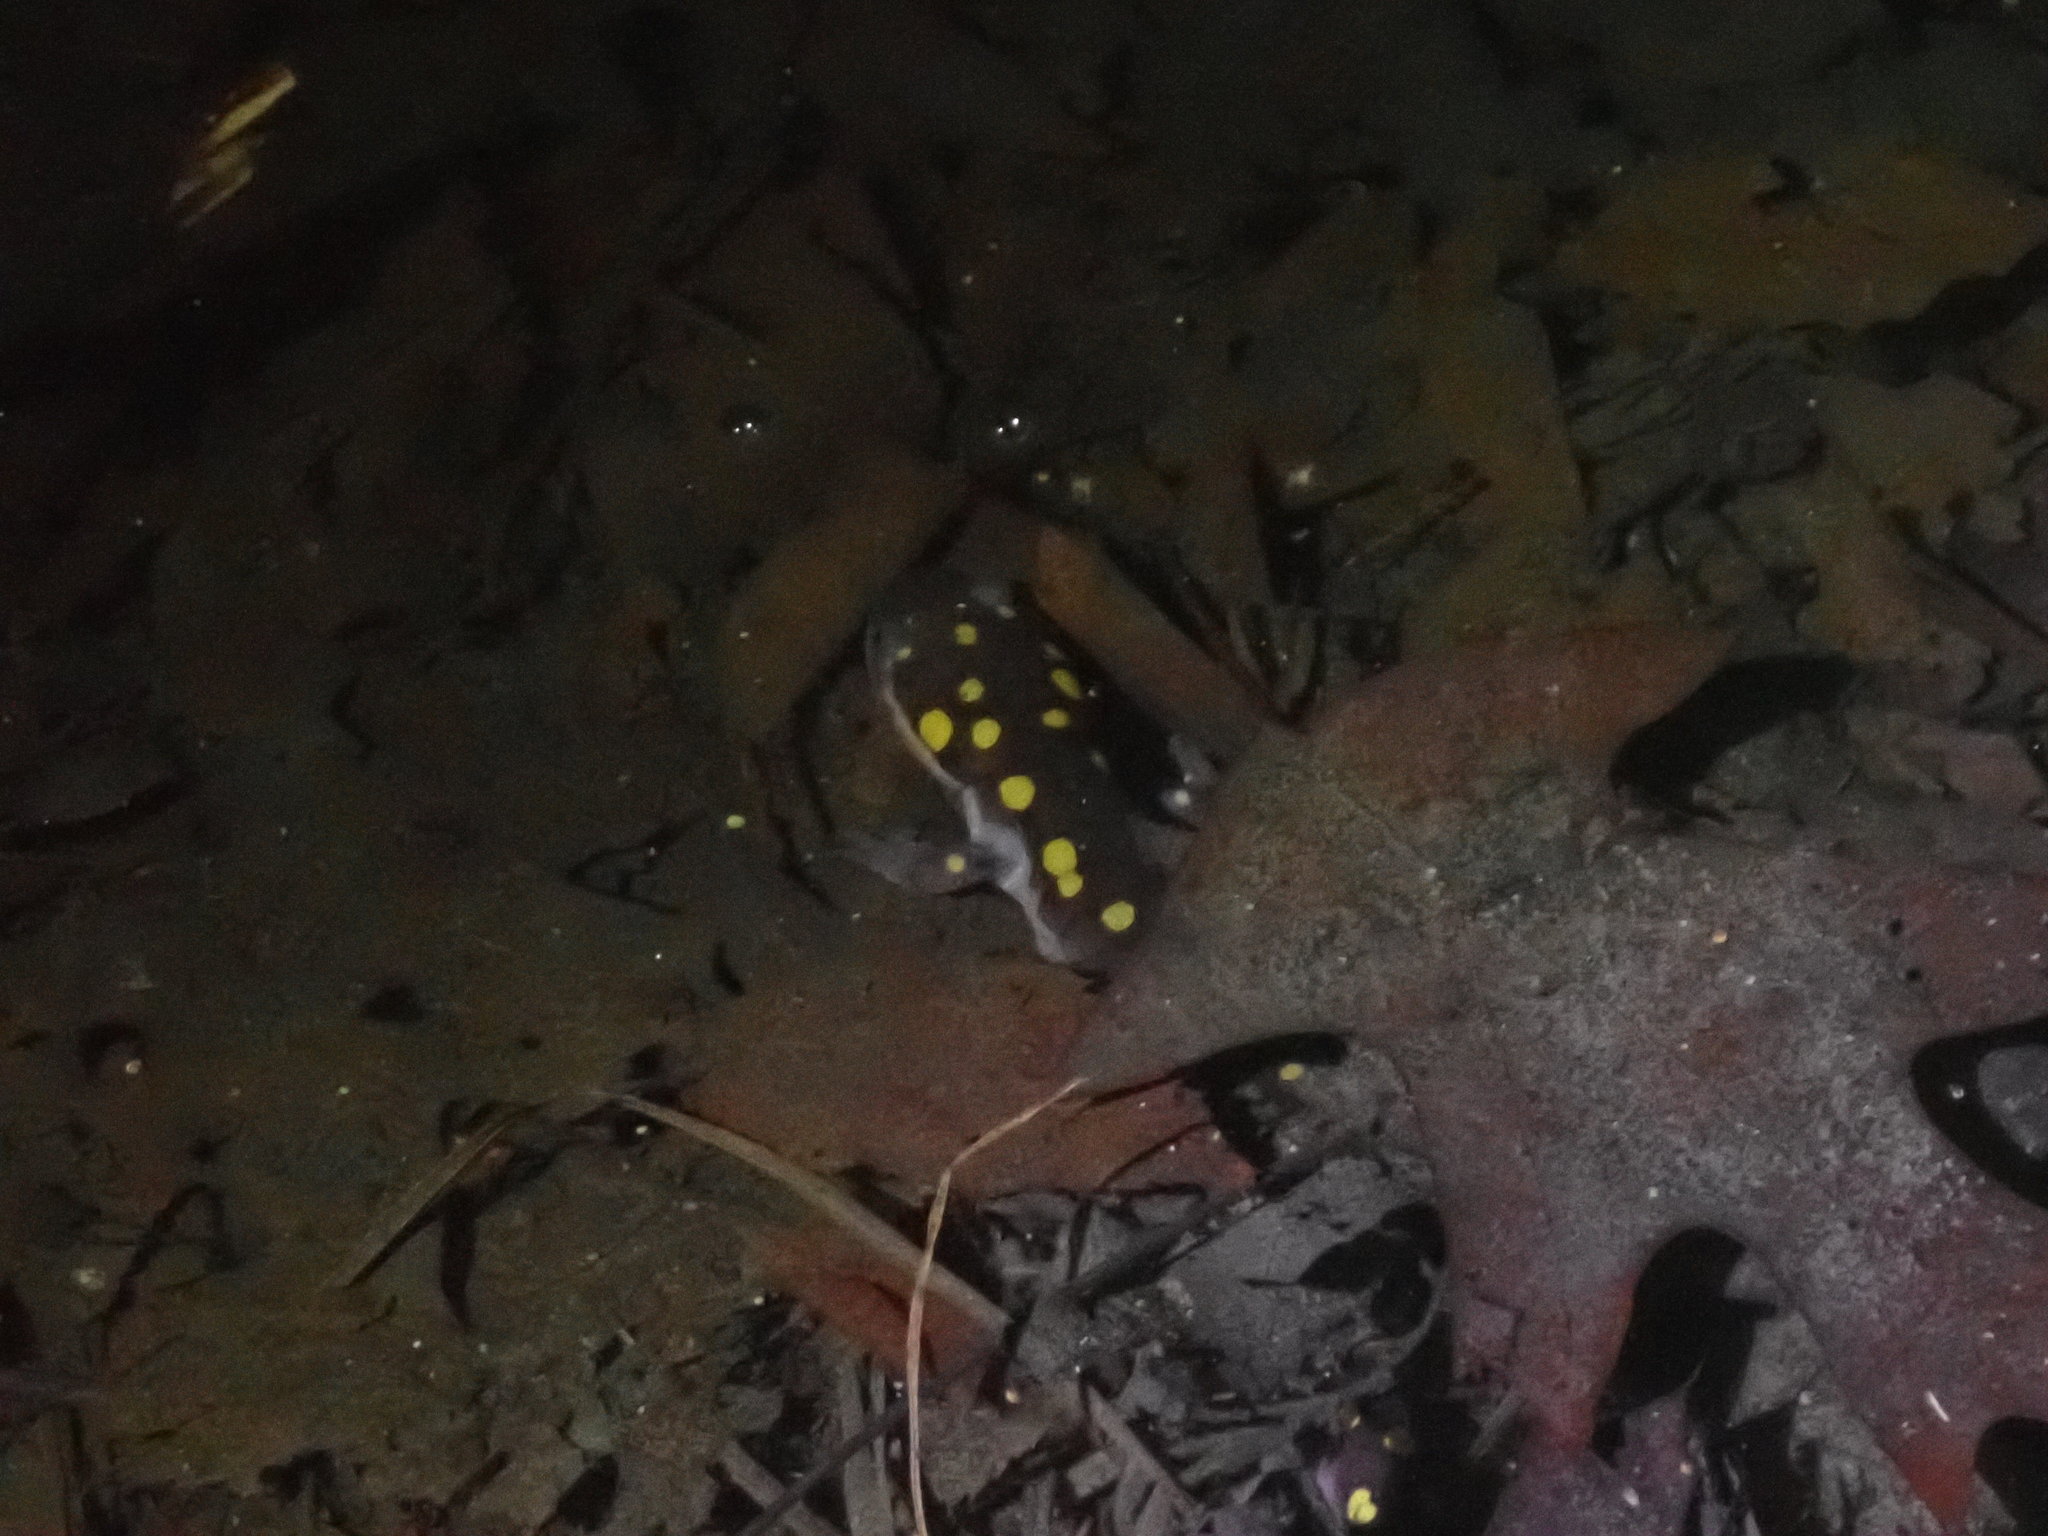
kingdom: Animalia
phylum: Chordata
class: Amphibia
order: Caudata
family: Ambystomatidae
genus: Ambystoma
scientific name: Ambystoma maculatum
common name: Spotted salamander
